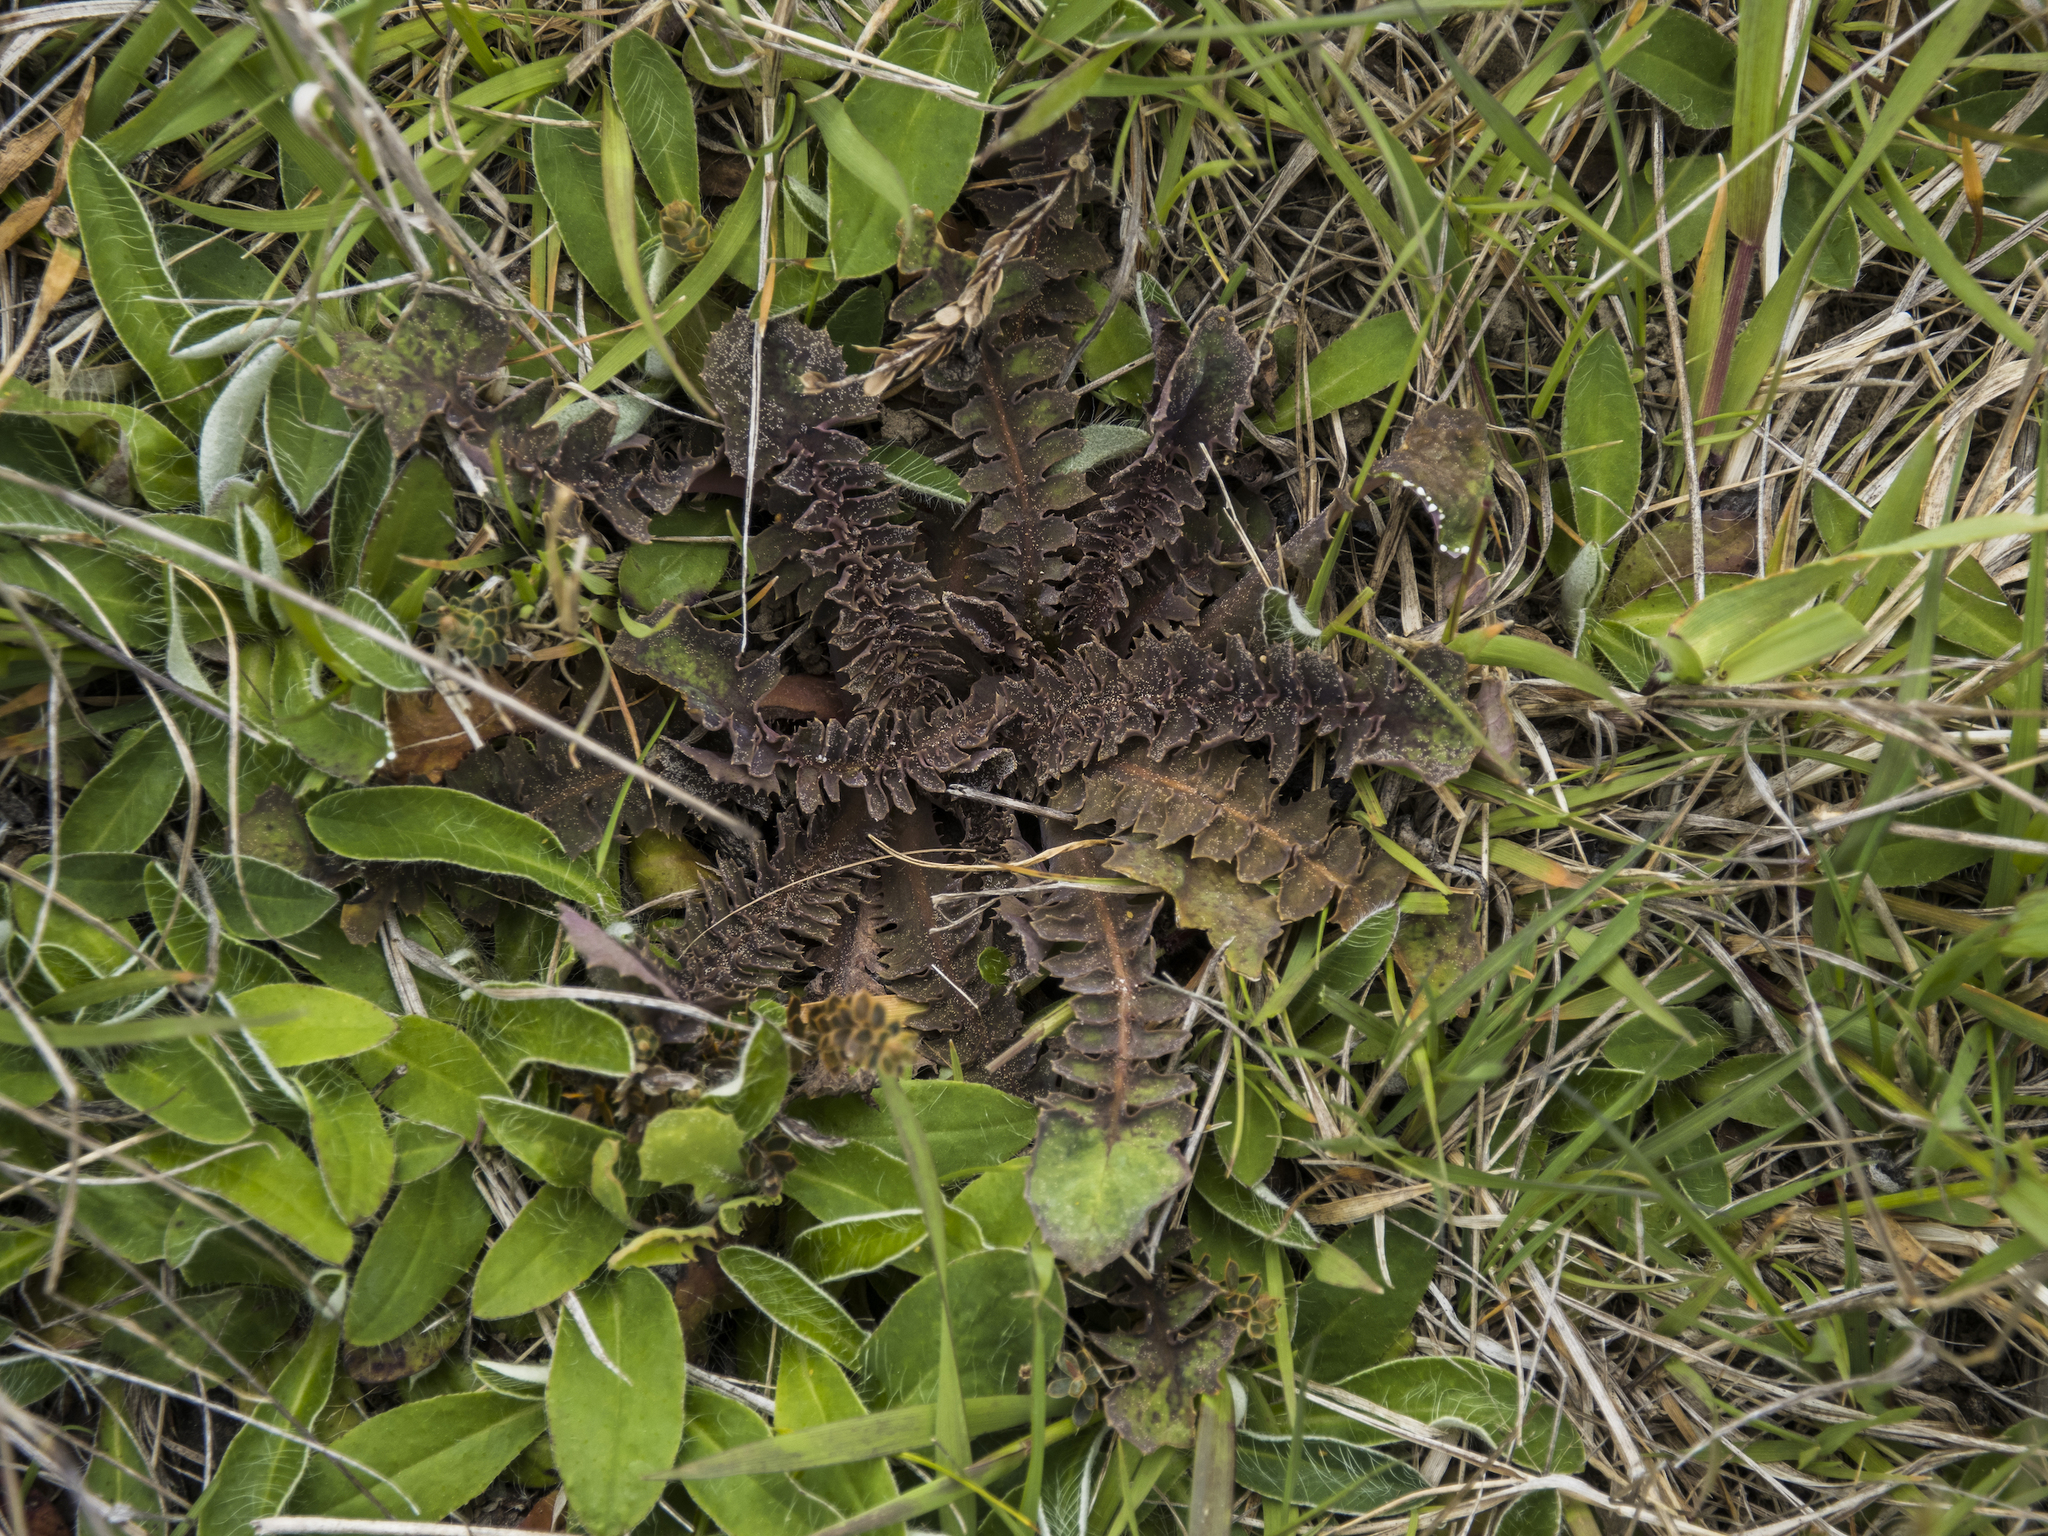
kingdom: Plantae
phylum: Tracheophyta
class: Magnoliopsida
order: Asterales
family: Asteraceae
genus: Sonchus
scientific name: Sonchus novae-zelandiae
